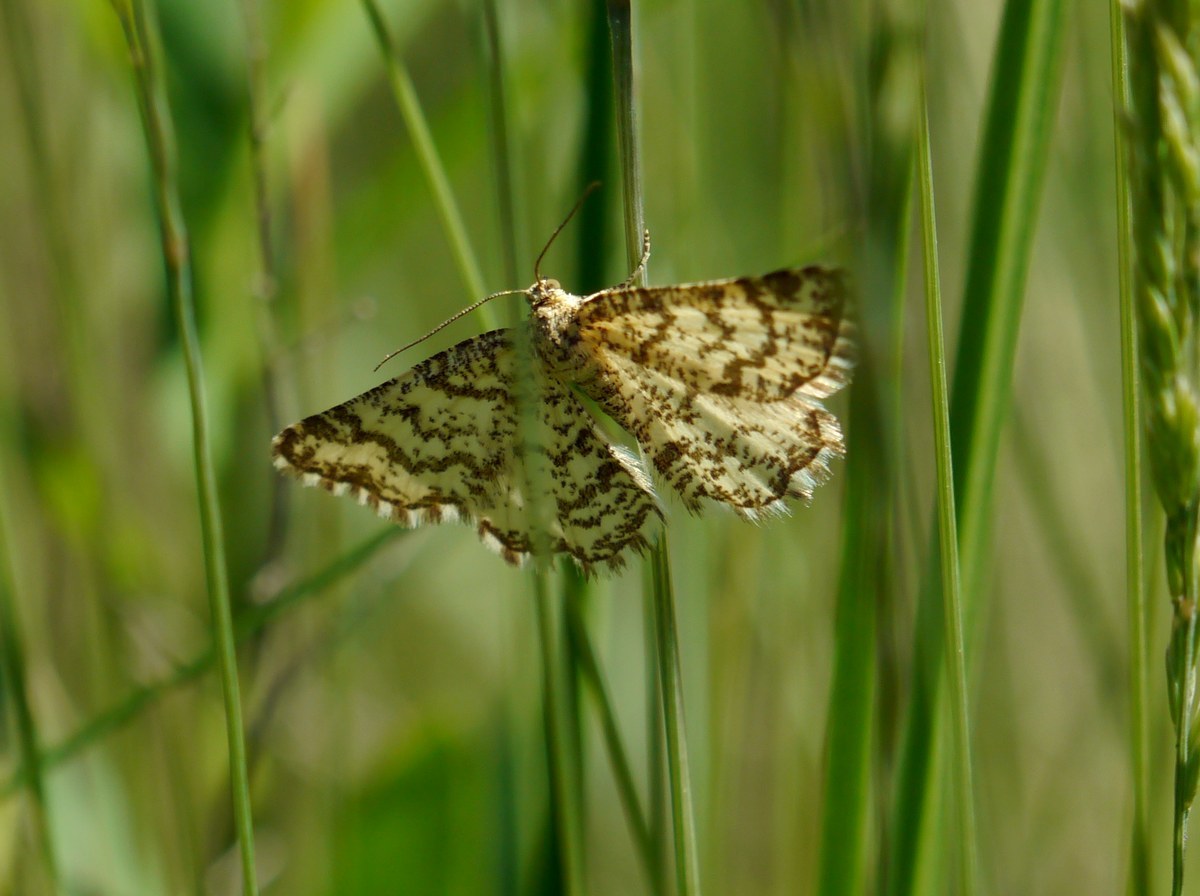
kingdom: Animalia
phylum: Arthropoda
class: Insecta
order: Lepidoptera
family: Geometridae
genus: Heliomata
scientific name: Heliomata glarearia
